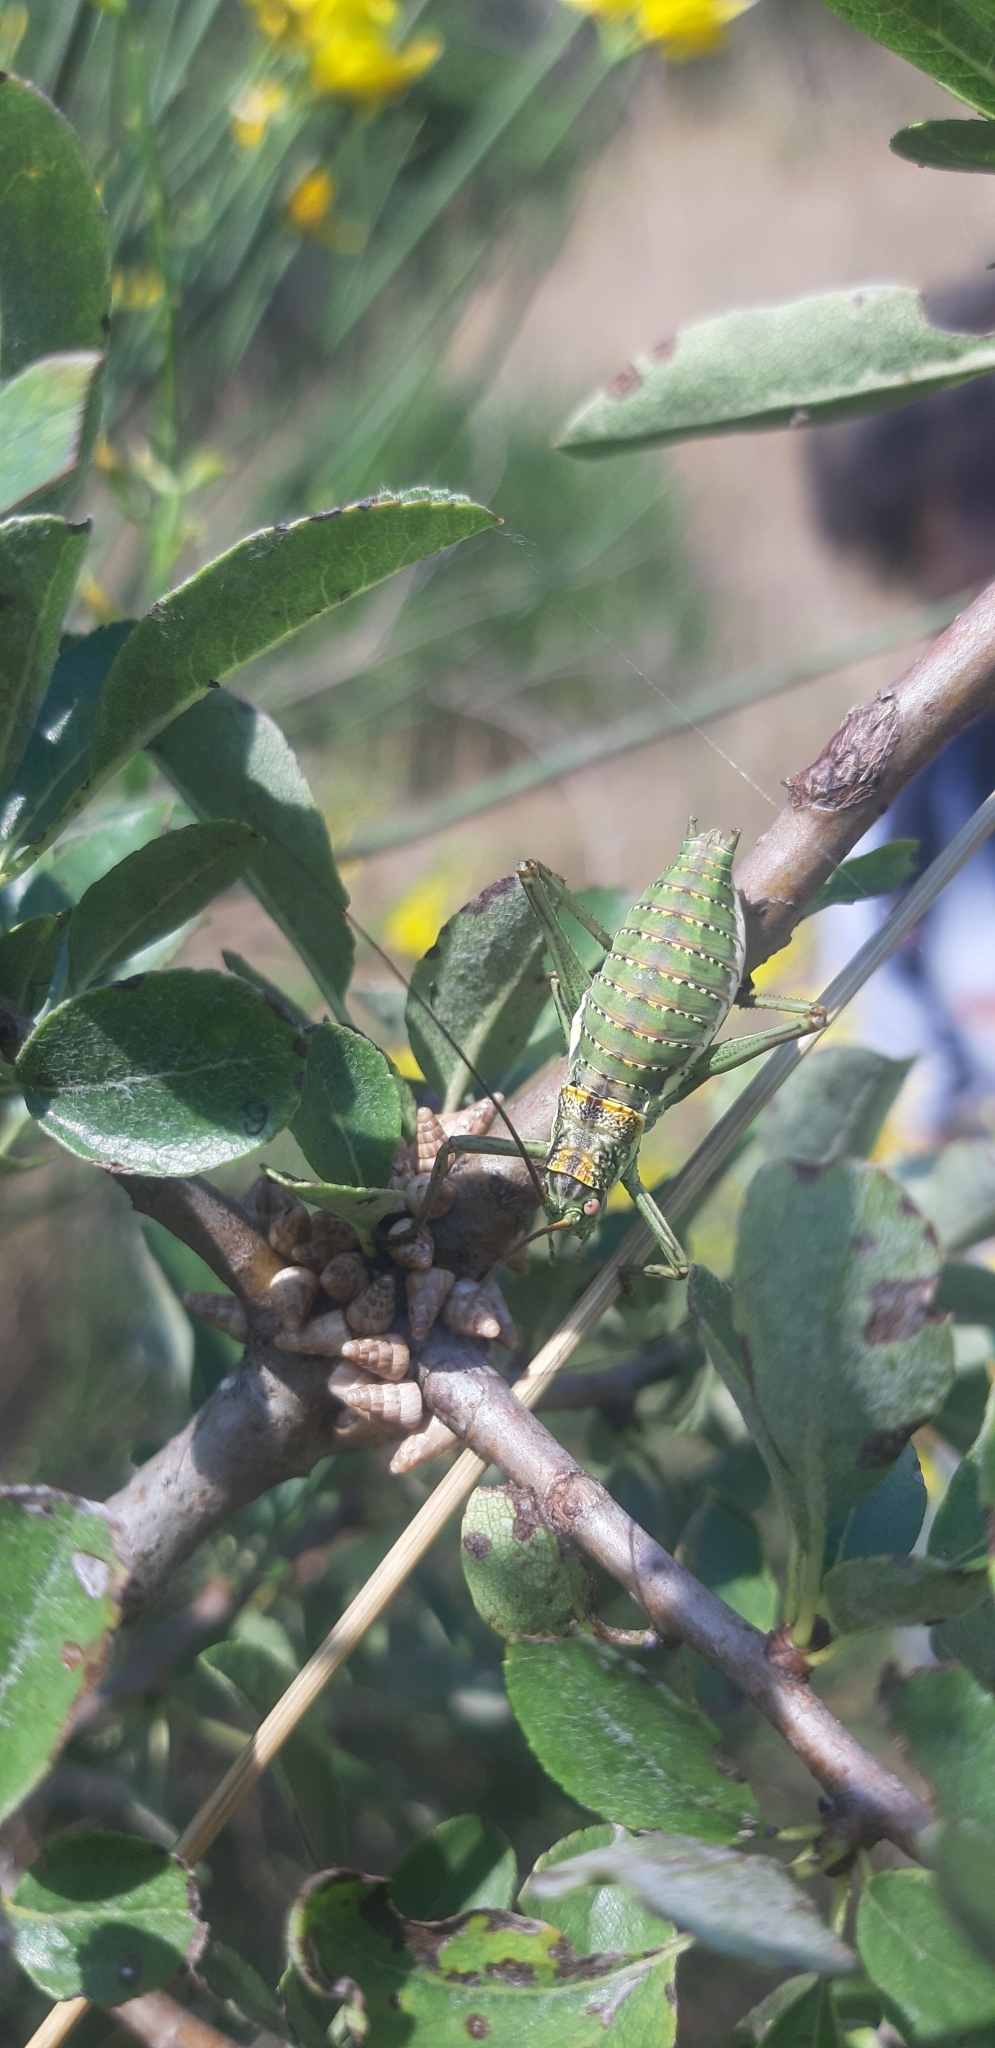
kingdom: Animalia
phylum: Arthropoda
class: Insecta
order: Orthoptera
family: Tettigoniidae
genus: Uromenus
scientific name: Uromenus elegans
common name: Elegant saddle bush-cricket
